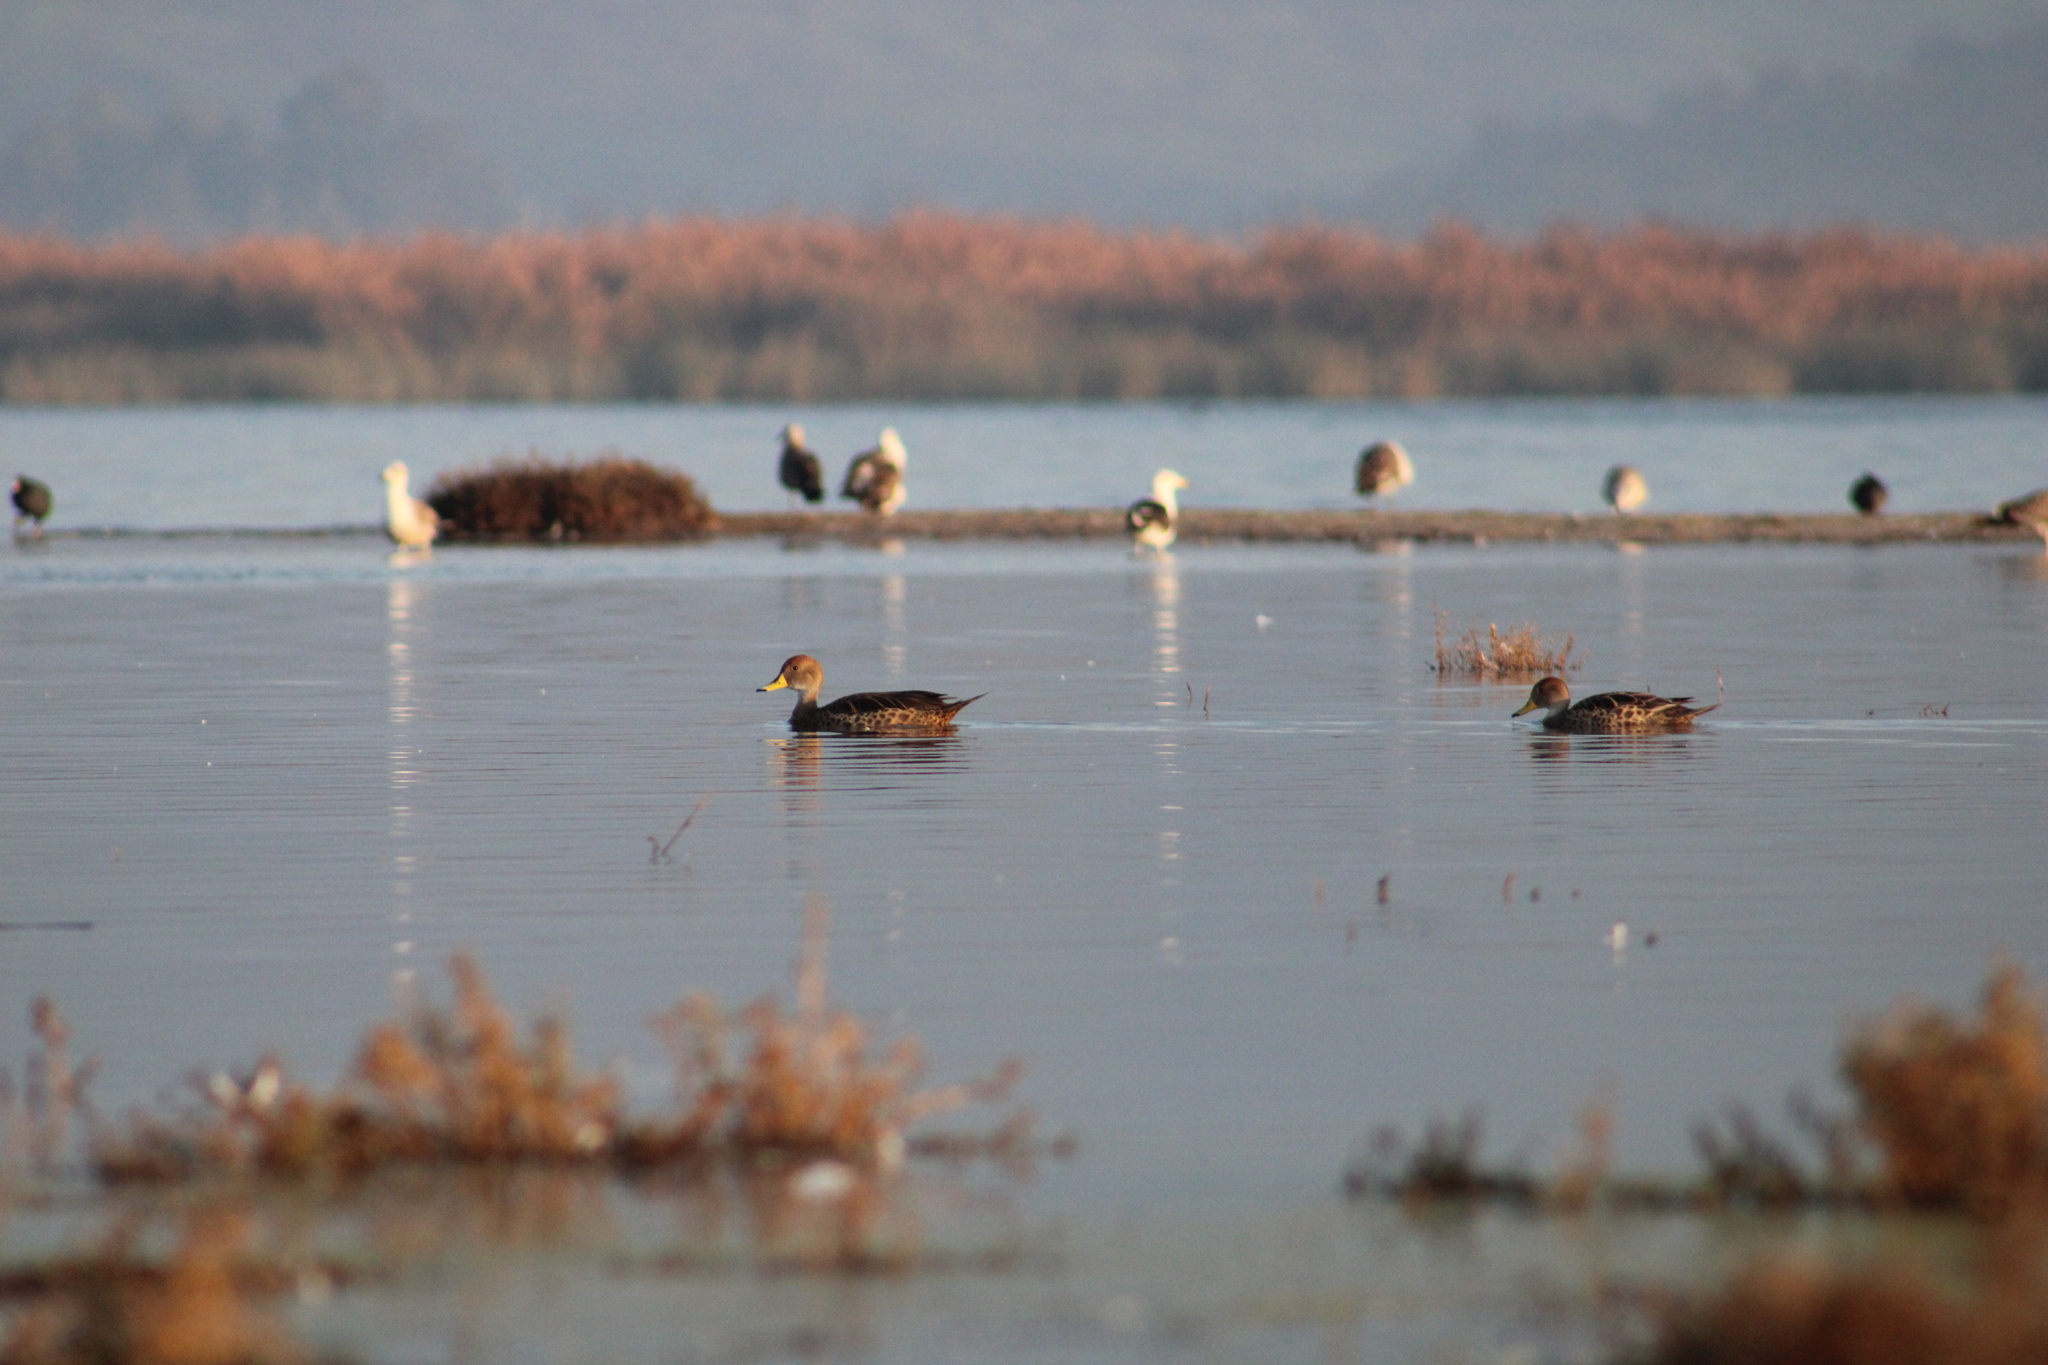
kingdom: Animalia
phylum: Chordata
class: Aves
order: Anseriformes
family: Anatidae
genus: Anas
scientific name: Anas georgica
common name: Yellow-billed pintail
